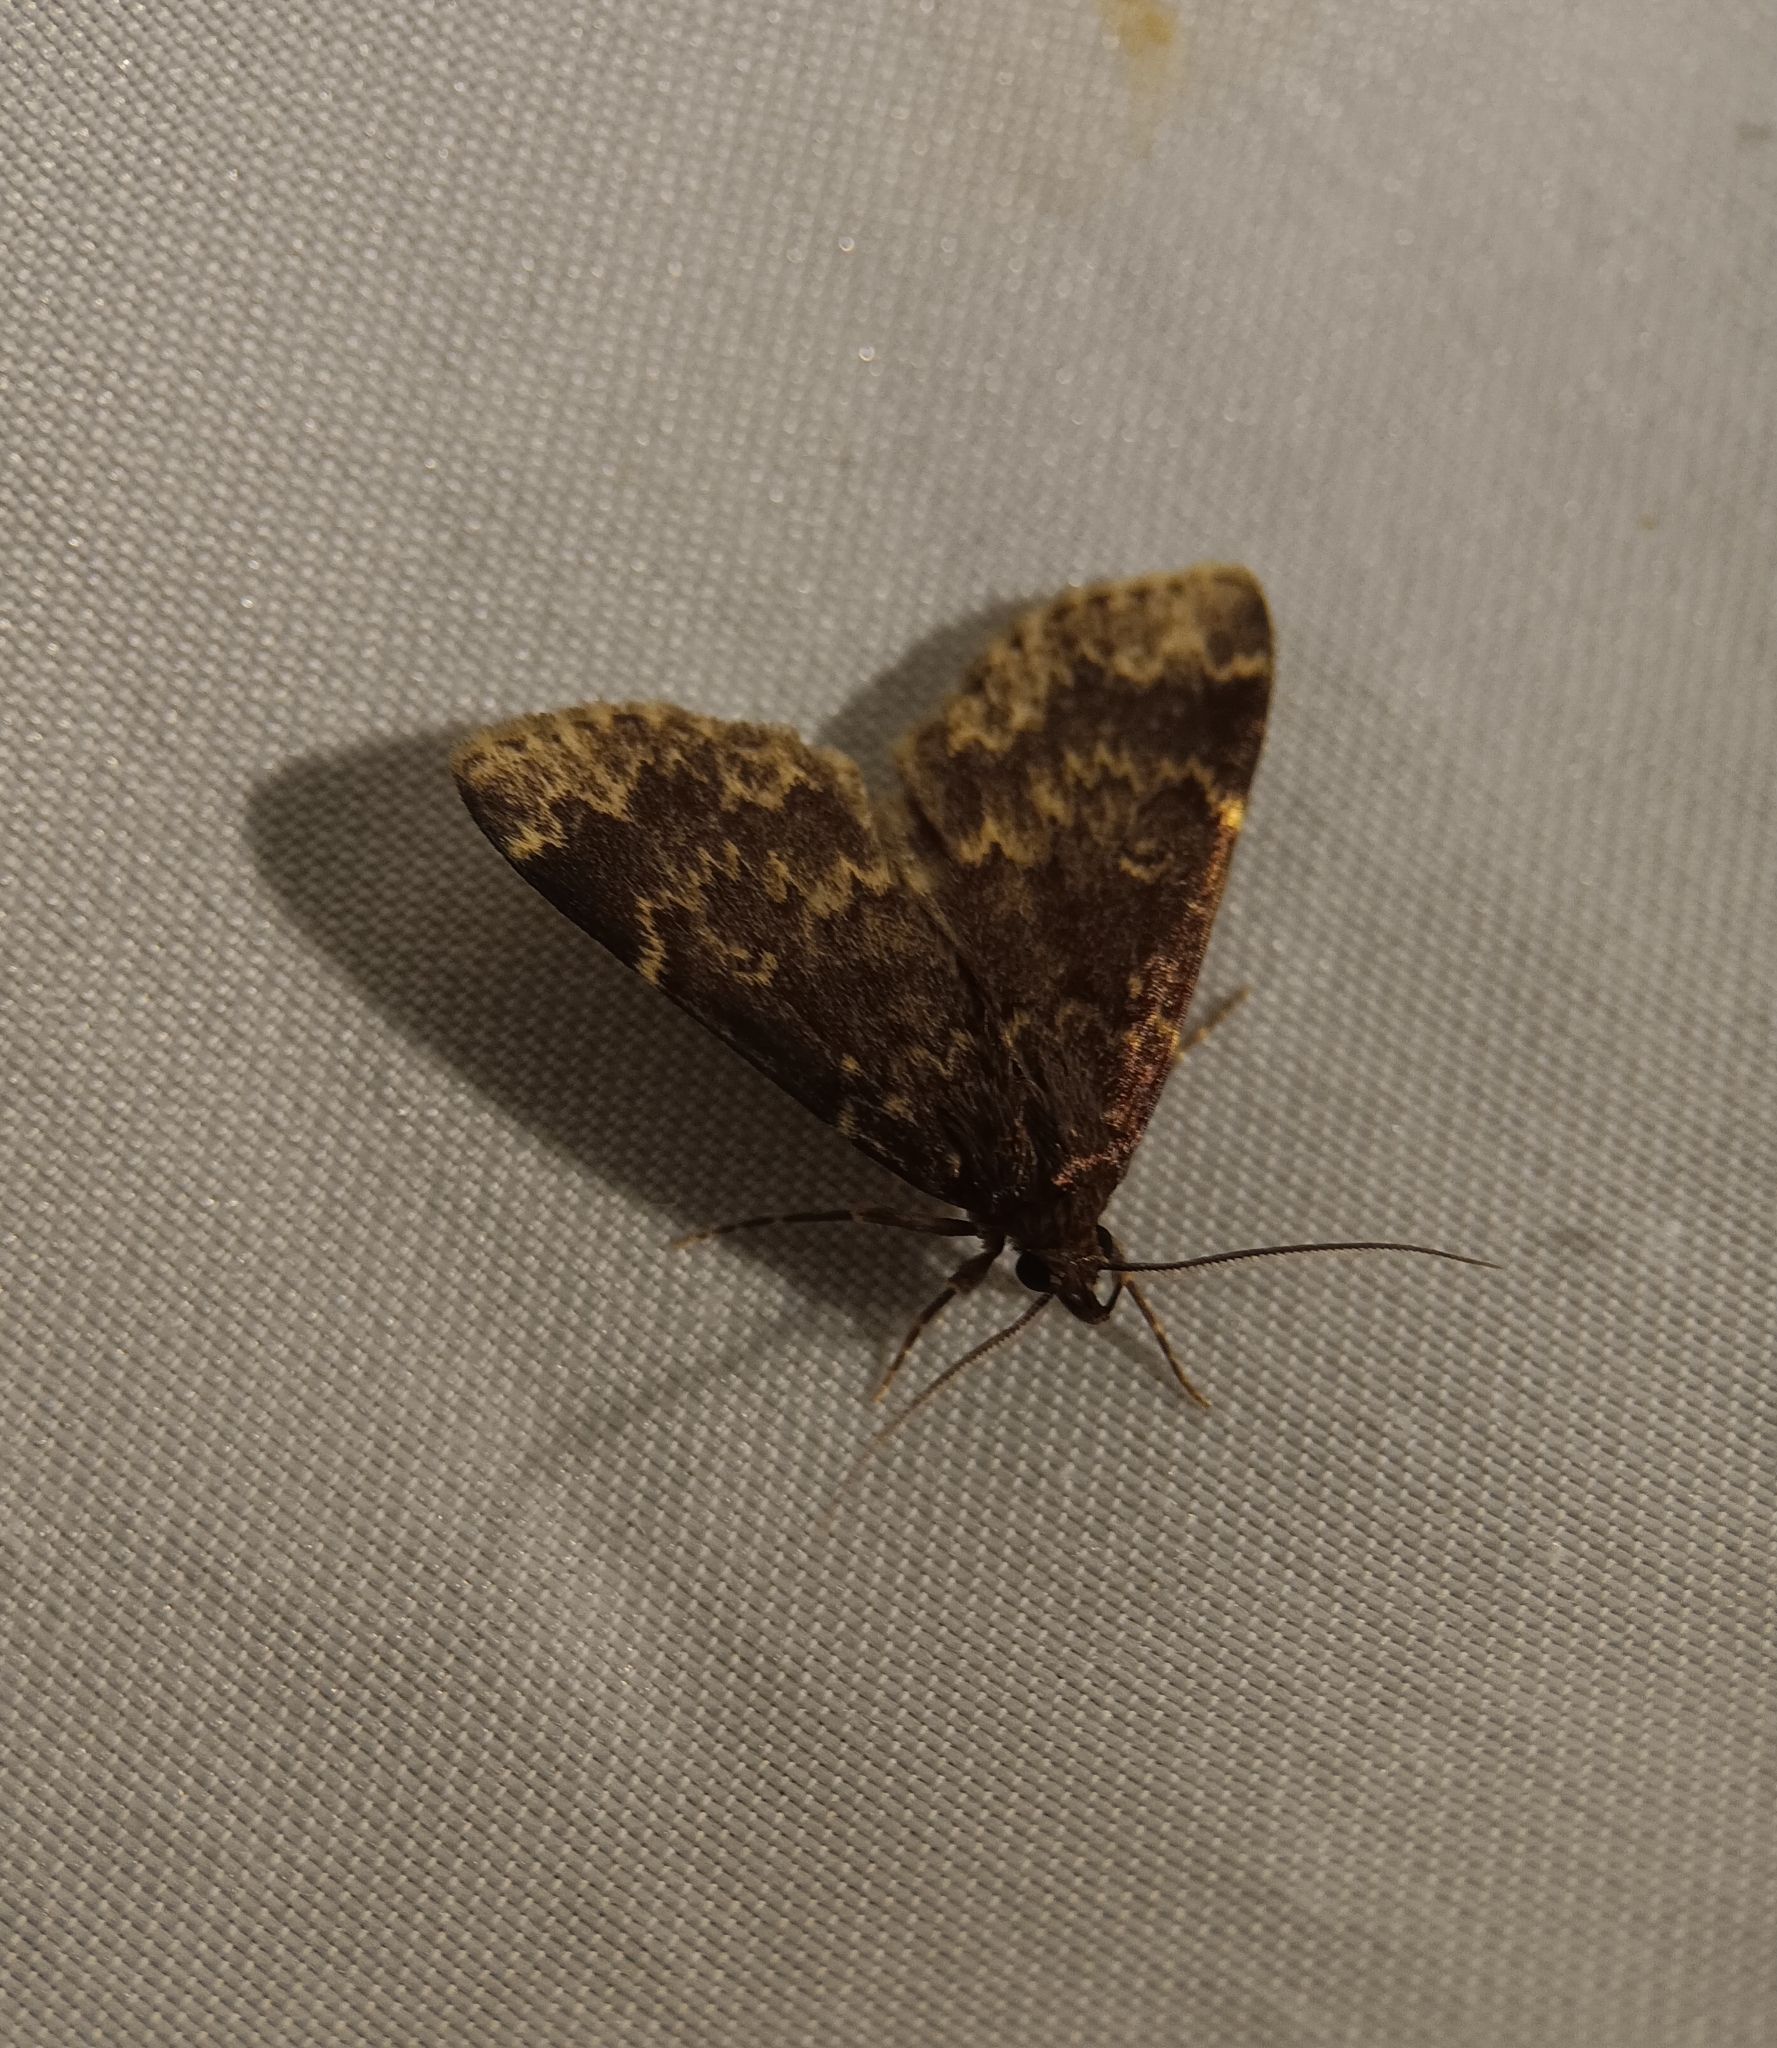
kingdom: Animalia
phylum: Arthropoda
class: Insecta
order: Lepidoptera
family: Erebidae
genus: Idia
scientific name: Idia lubricalis
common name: Twin-striped tabby
